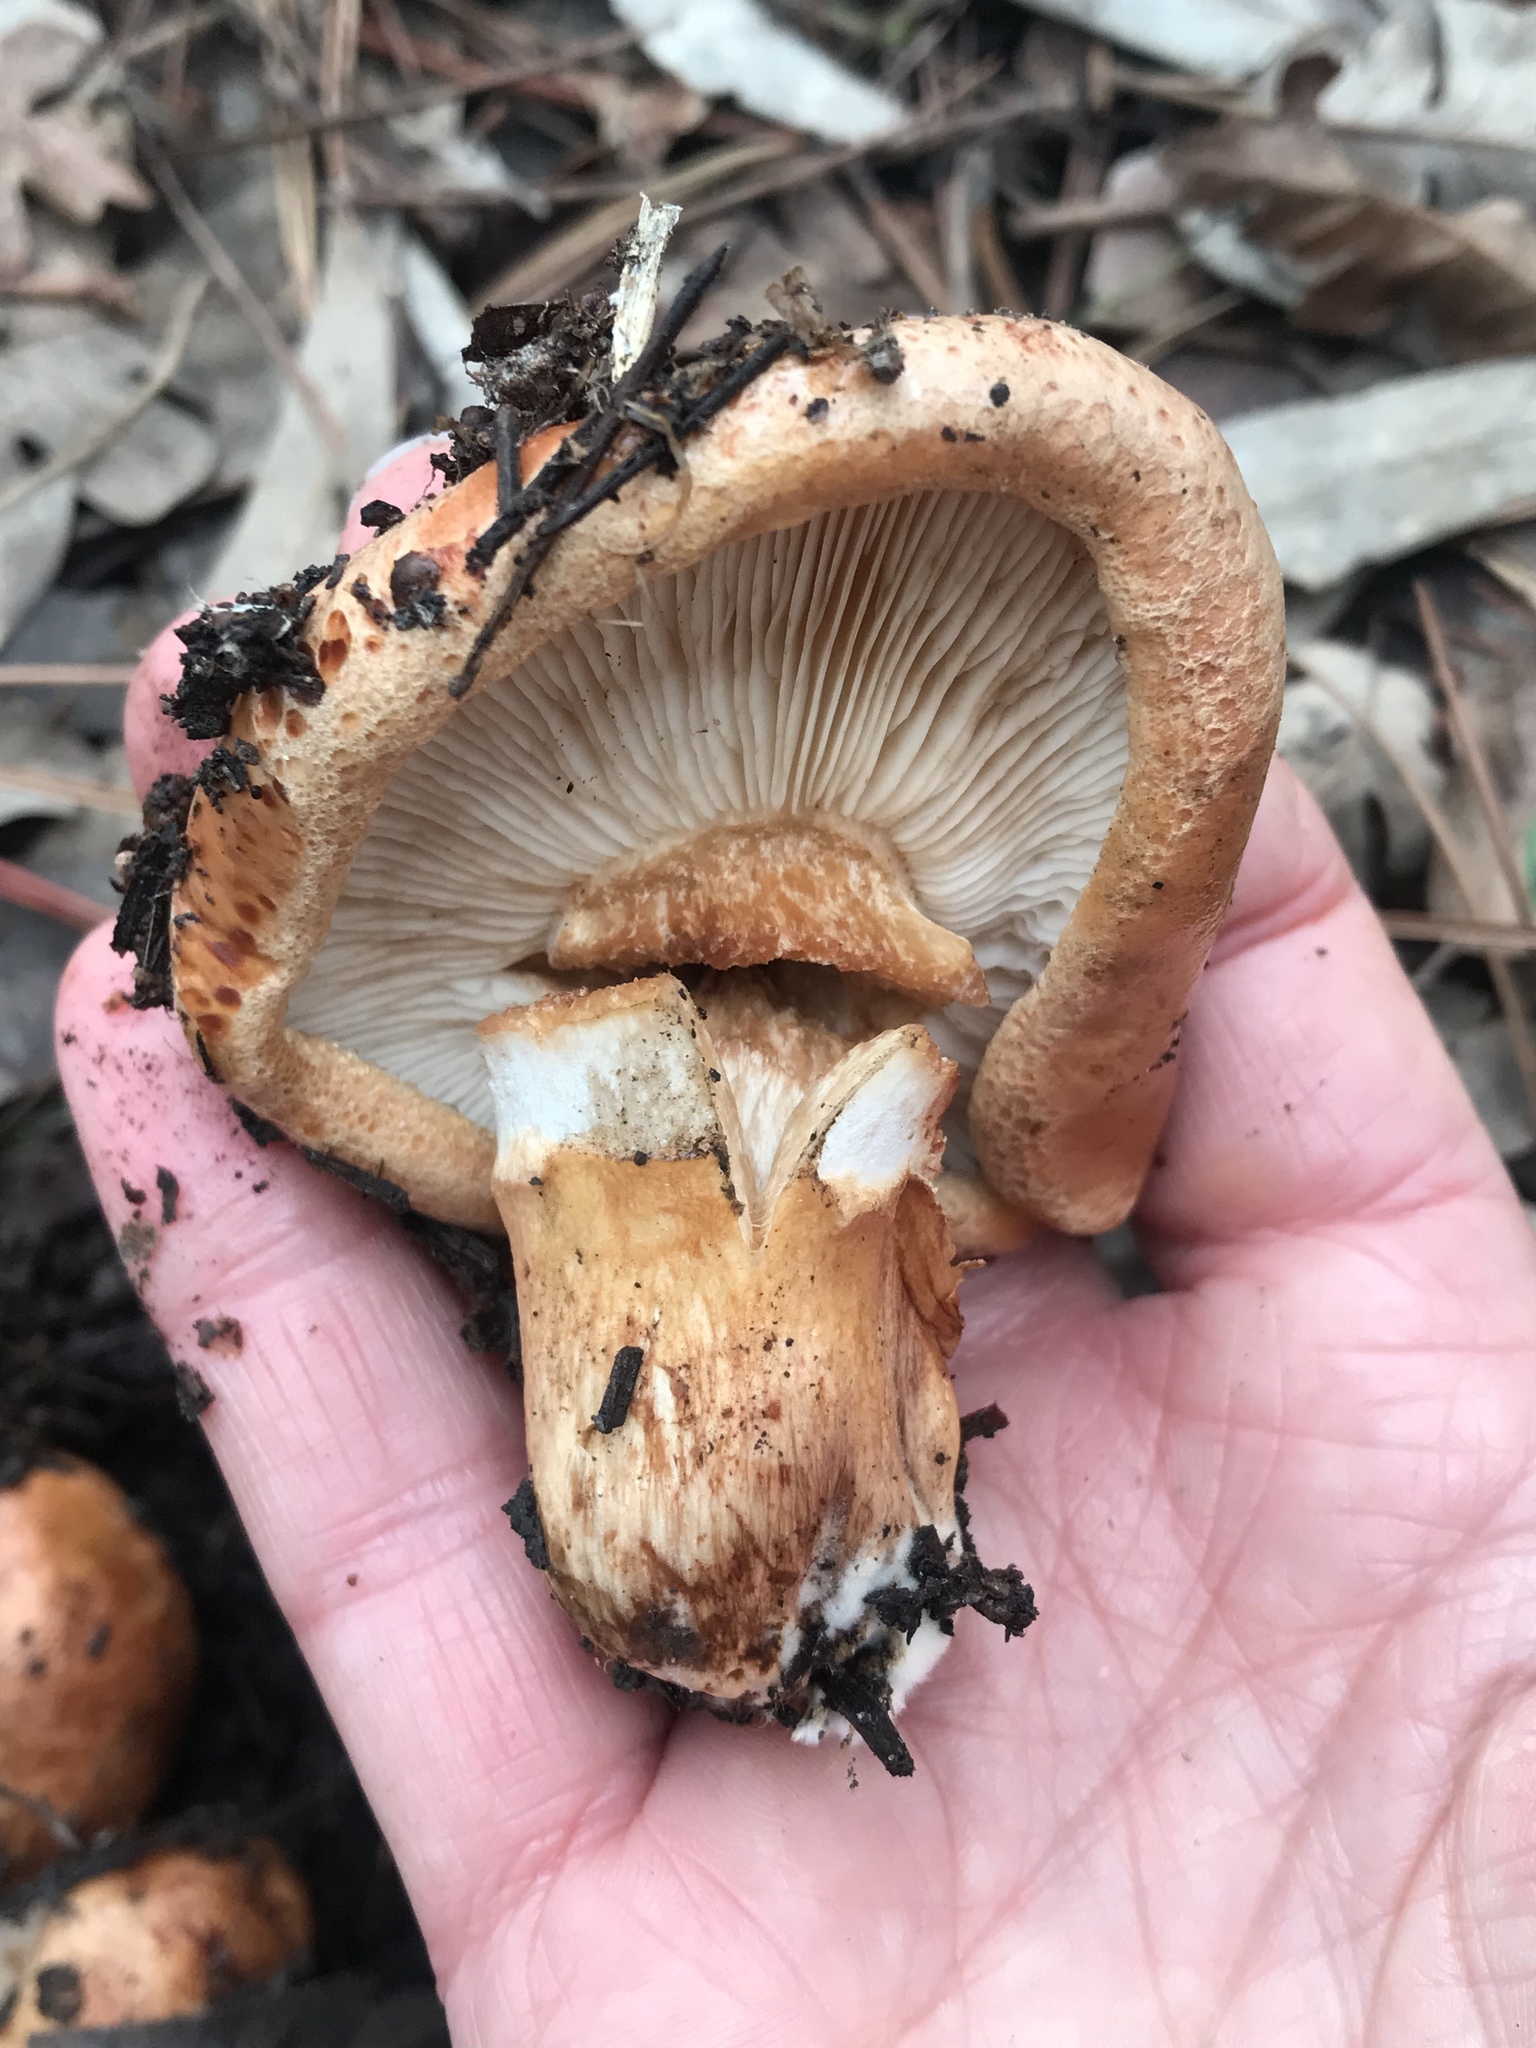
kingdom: Fungi
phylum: Basidiomycota
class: Agaricomycetes
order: Agaricales
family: Tricholomataceae
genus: Tricholoma
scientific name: Tricholoma fracticum
